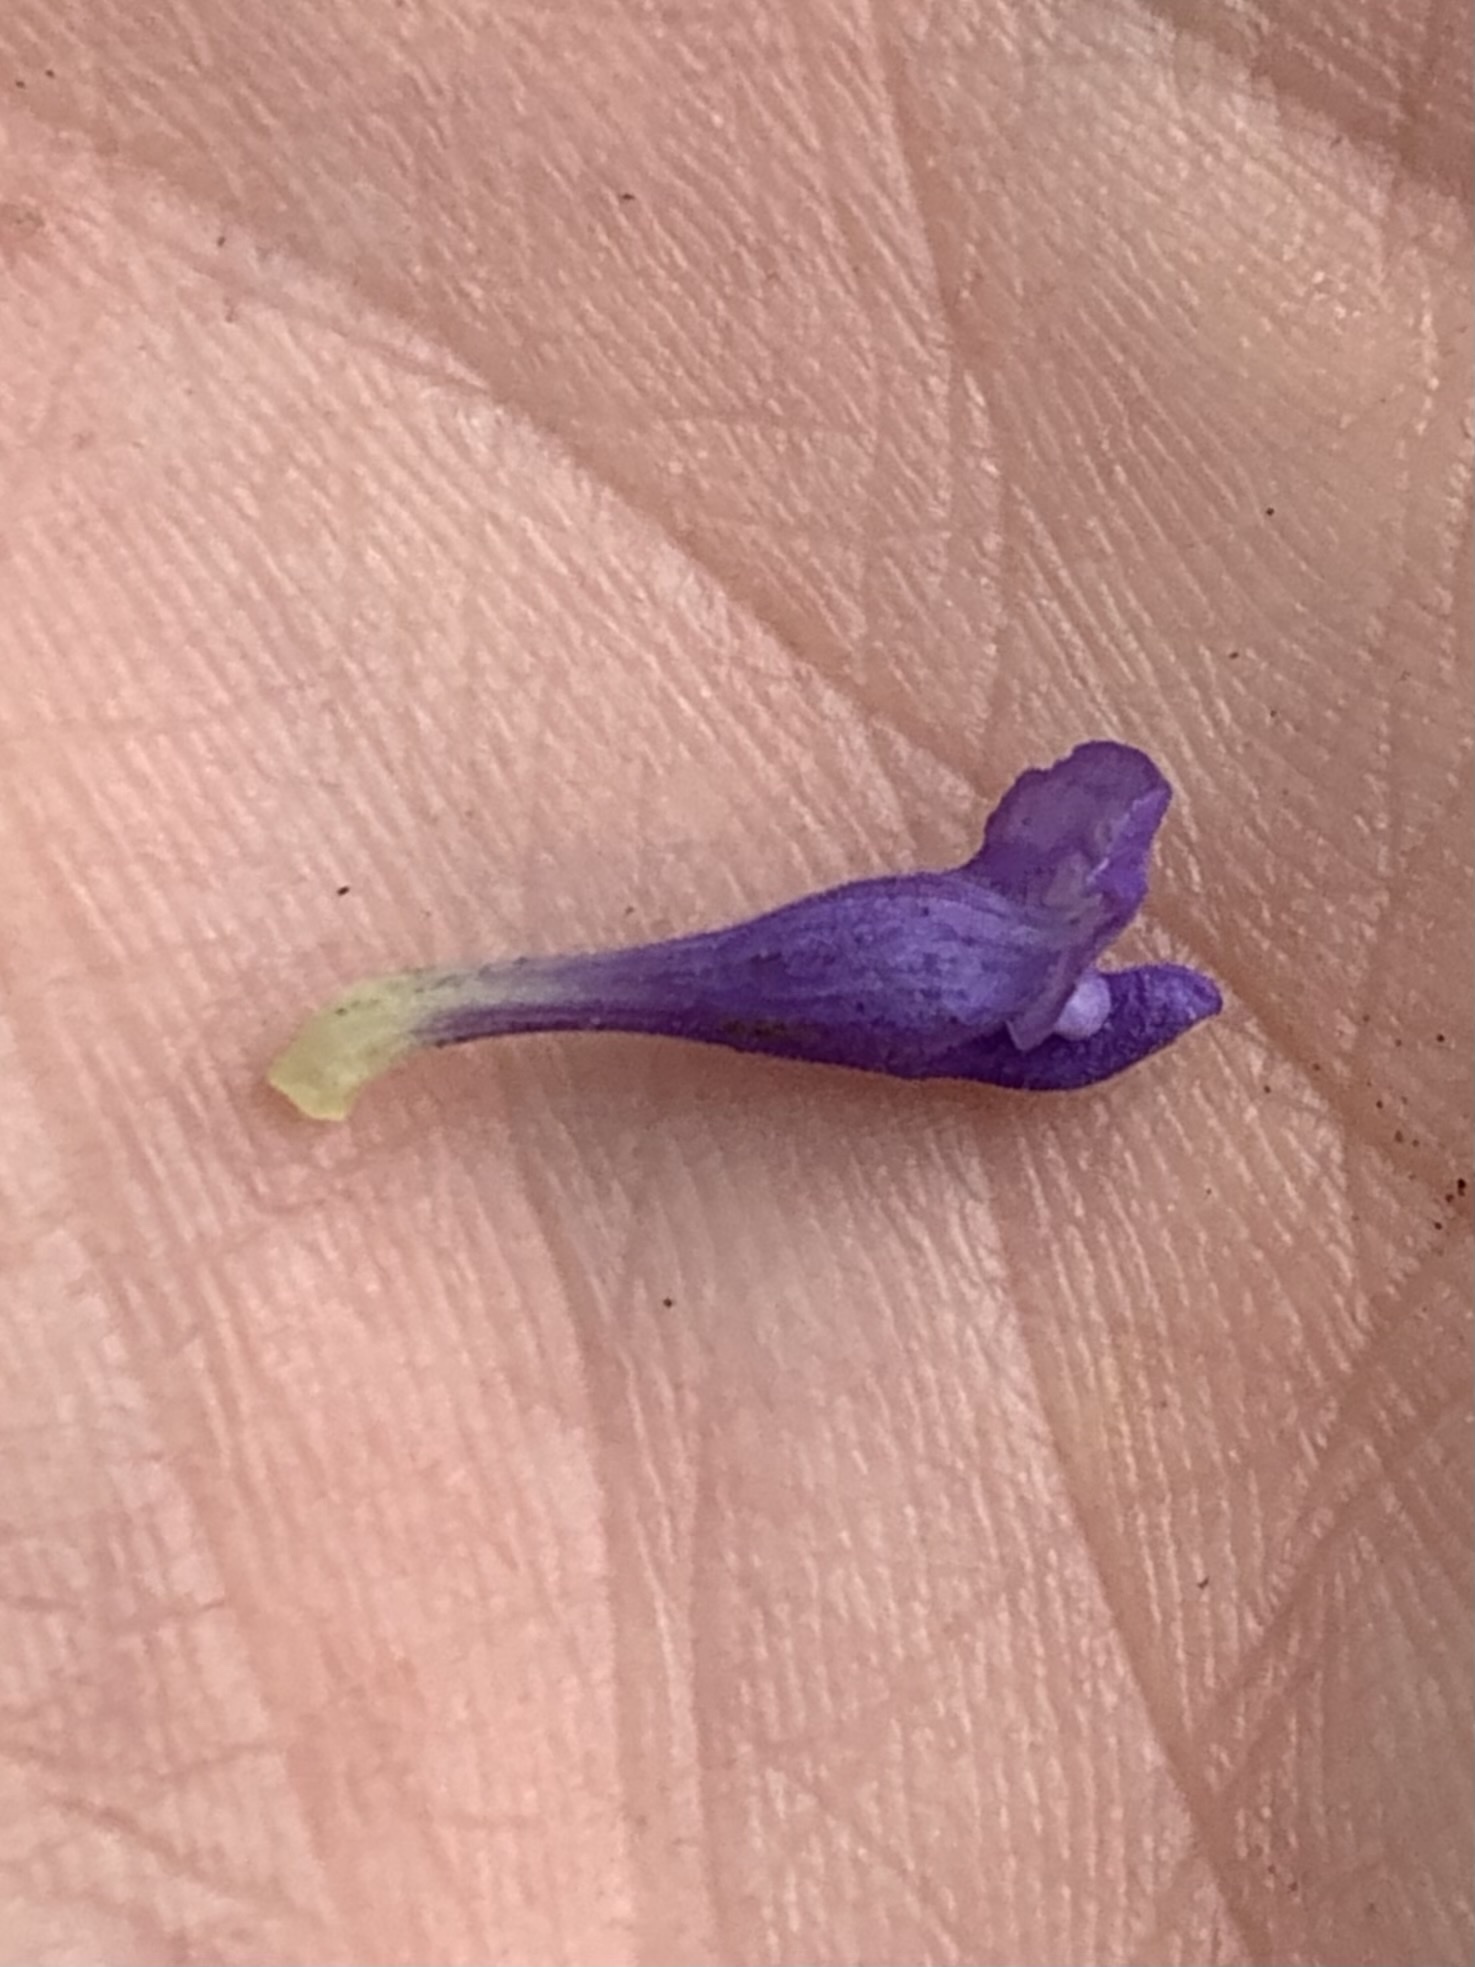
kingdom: Plantae
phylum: Tracheophyta
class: Magnoliopsida
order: Lamiales
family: Lamiaceae
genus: Scutellaria
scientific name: Scutellaria angustifolia
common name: Narrow-leaved skullcap
